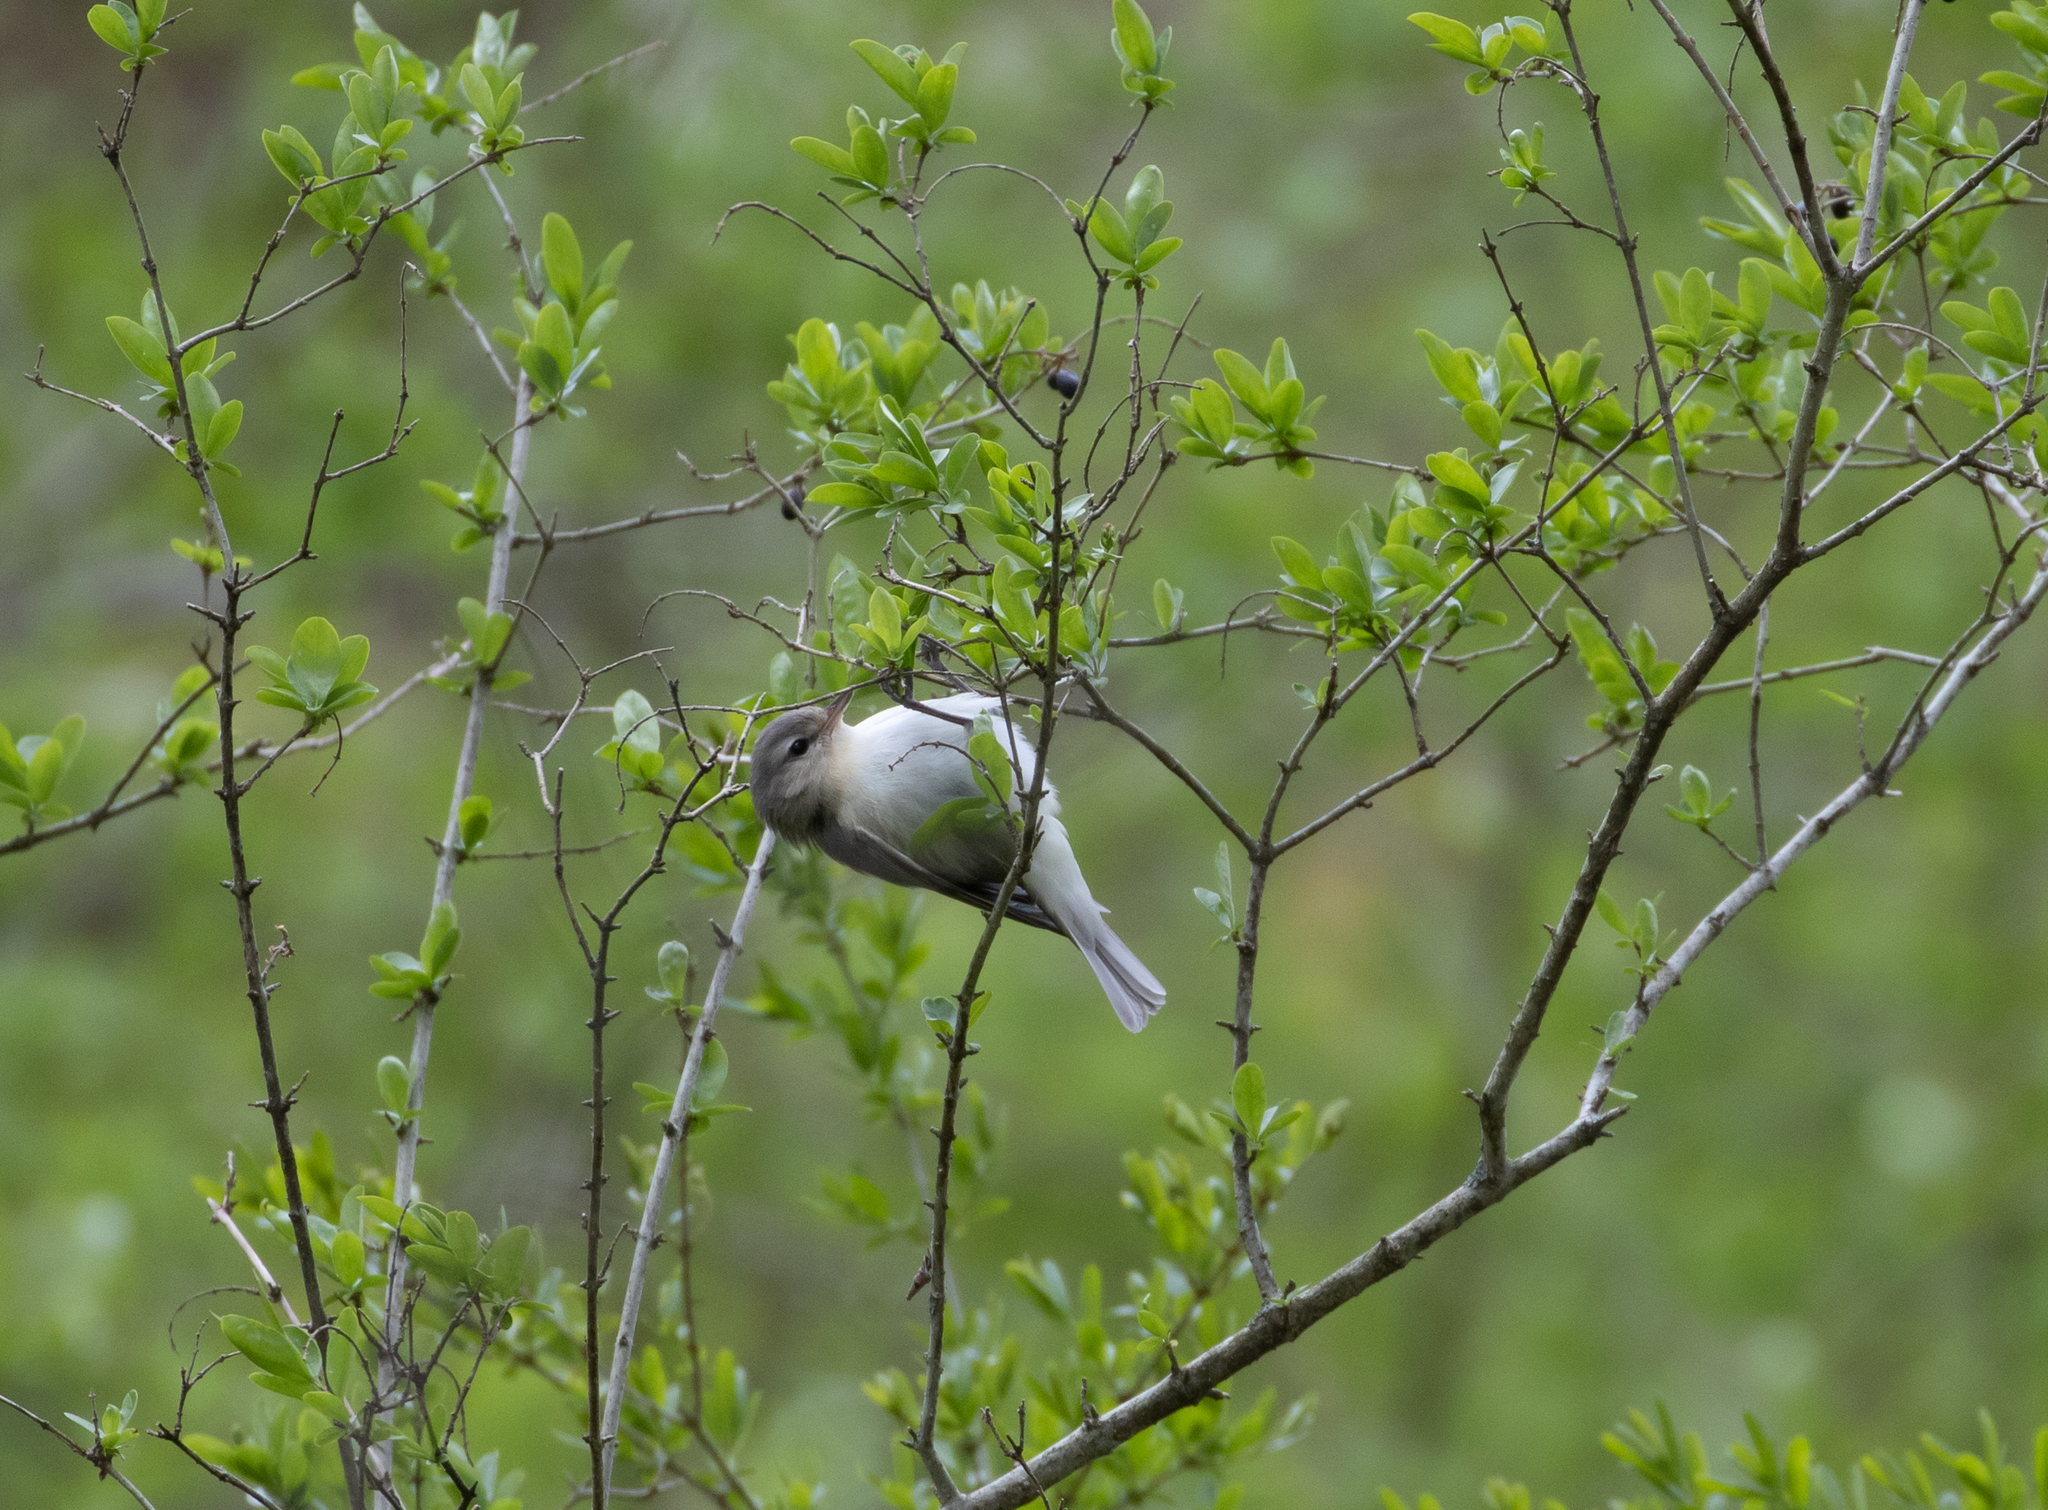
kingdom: Animalia
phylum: Chordata
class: Aves
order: Passeriformes
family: Vireonidae
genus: Vireo
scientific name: Vireo gilvus
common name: Warbling vireo
